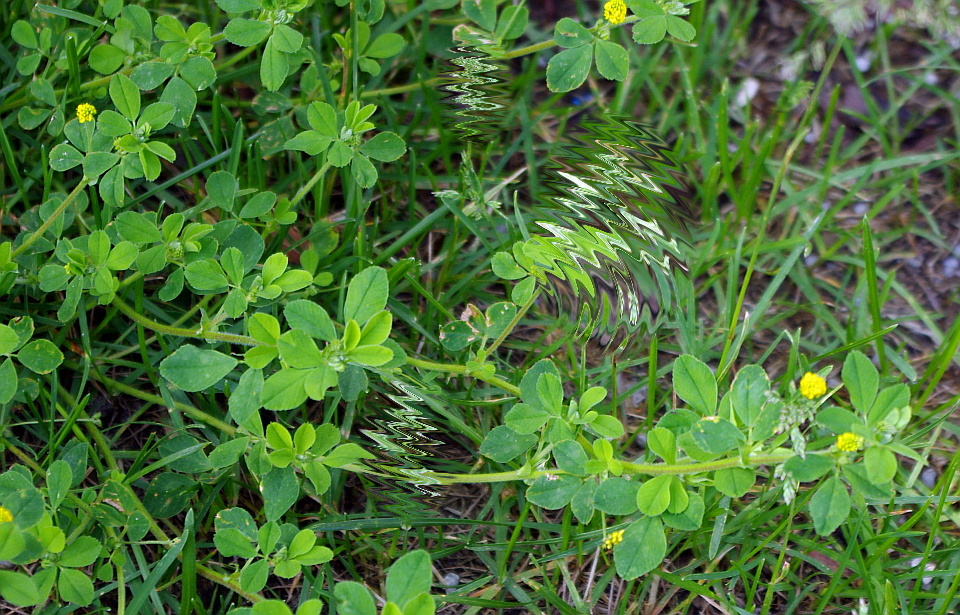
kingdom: Plantae
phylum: Tracheophyta
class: Magnoliopsida
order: Fabales
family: Fabaceae
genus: Medicago
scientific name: Medicago lupulina
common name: Black medick
